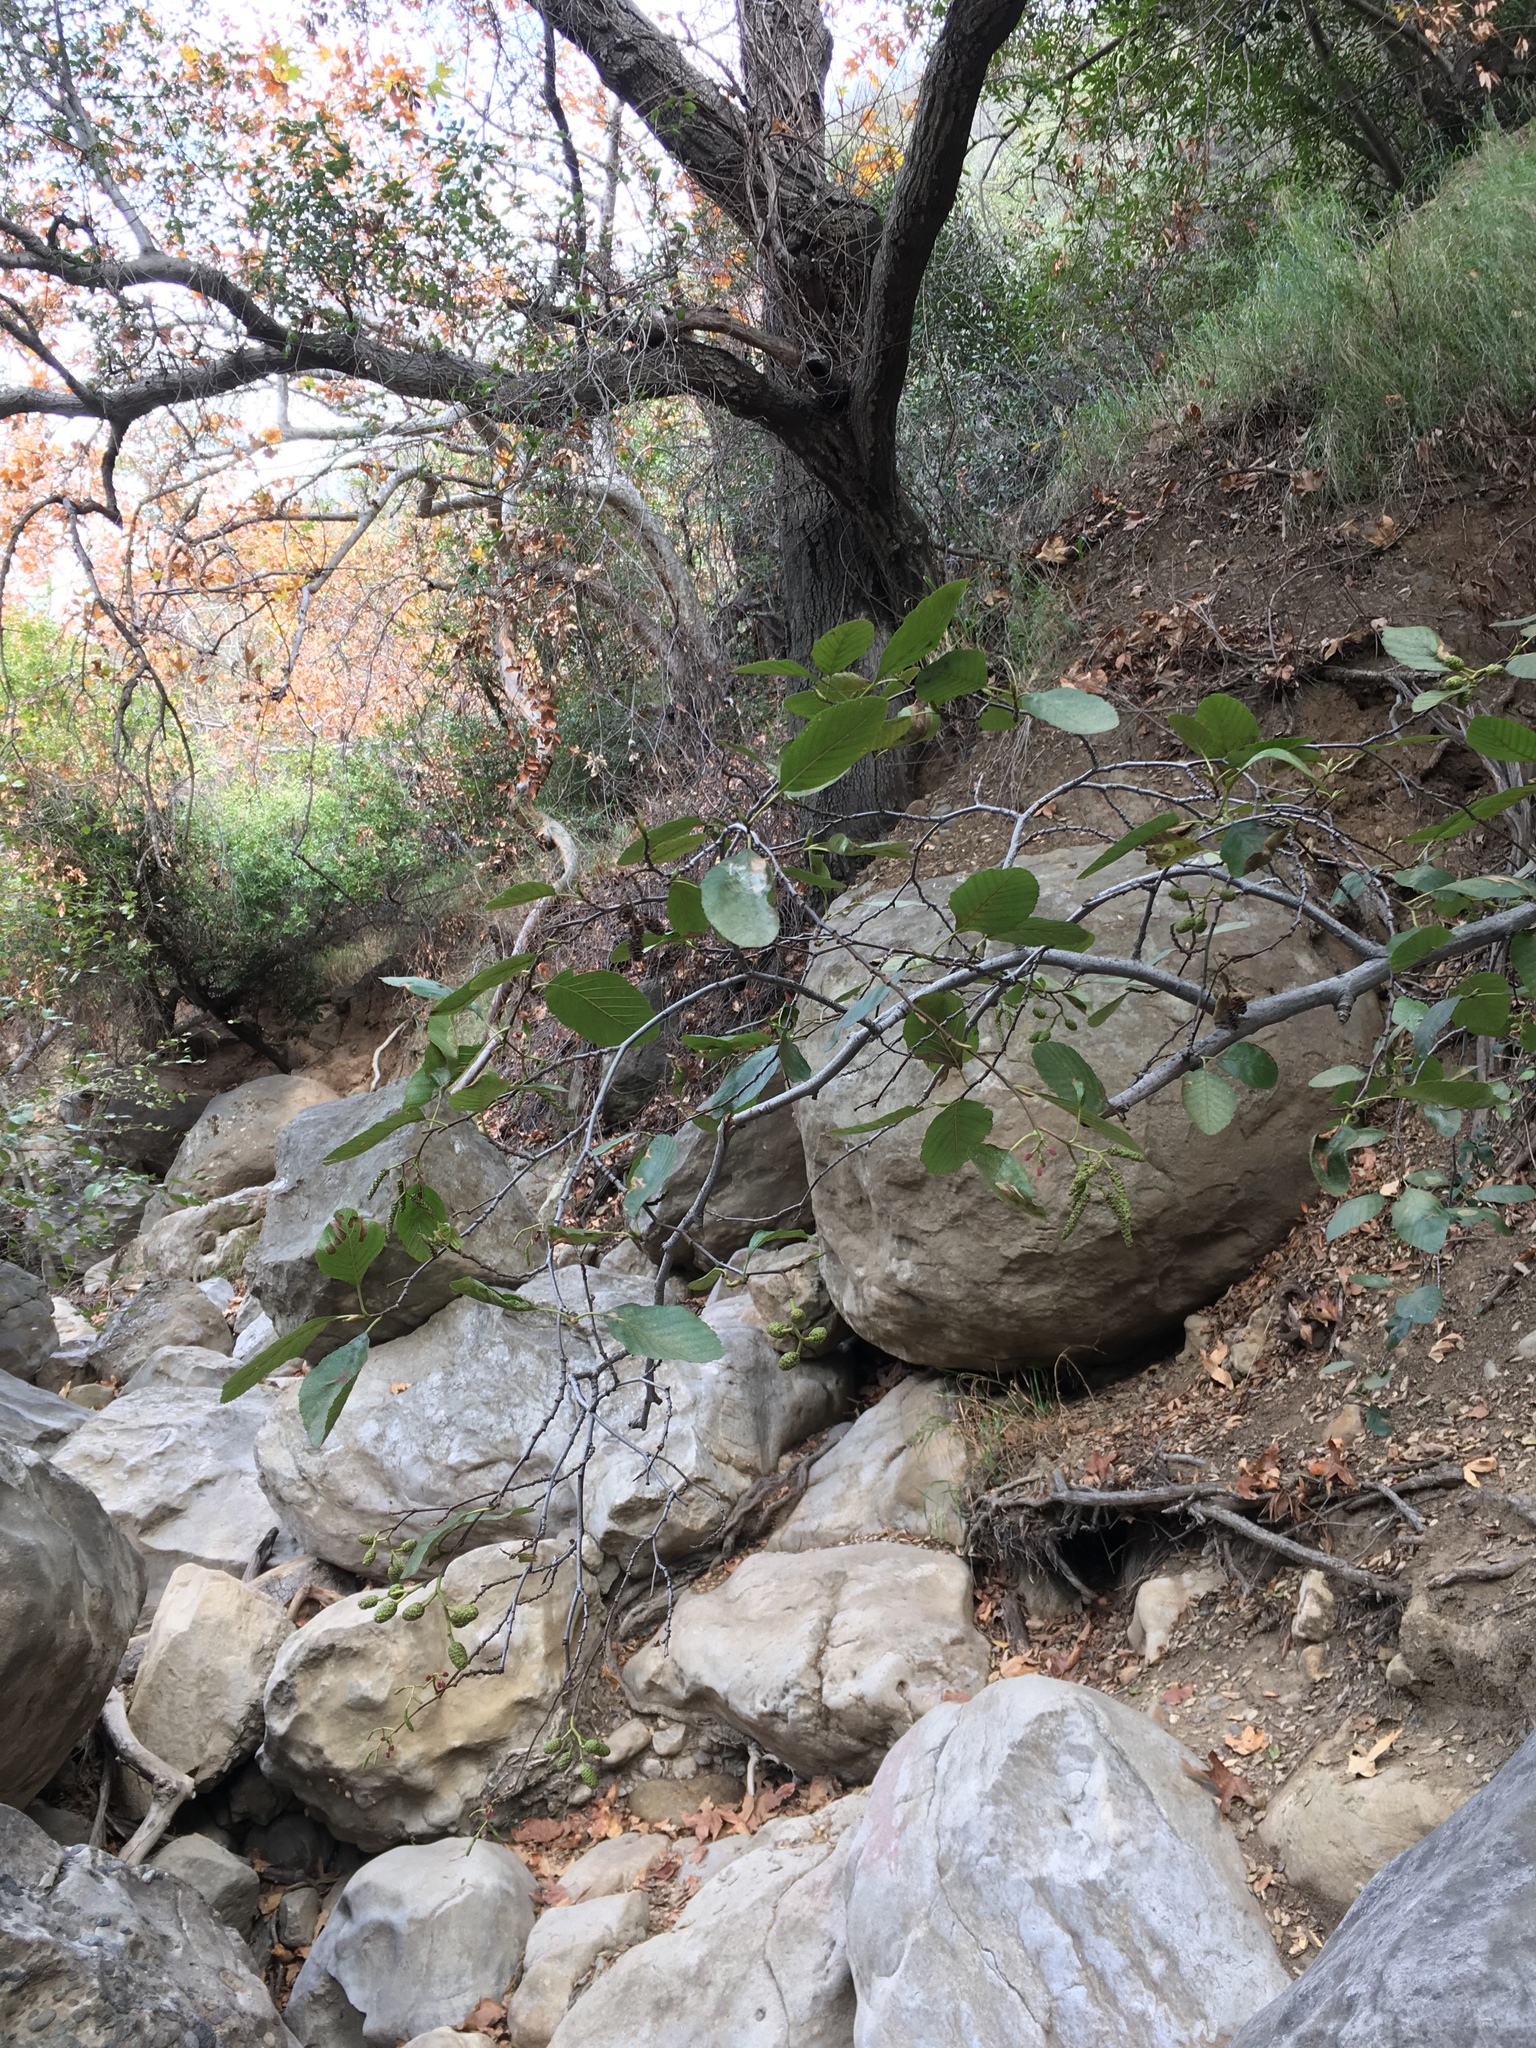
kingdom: Plantae
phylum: Tracheophyta
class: Magnoliopsida
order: Fagales
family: Betulaceae
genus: Alnus
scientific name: Alnus rhombifolia
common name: California alder
